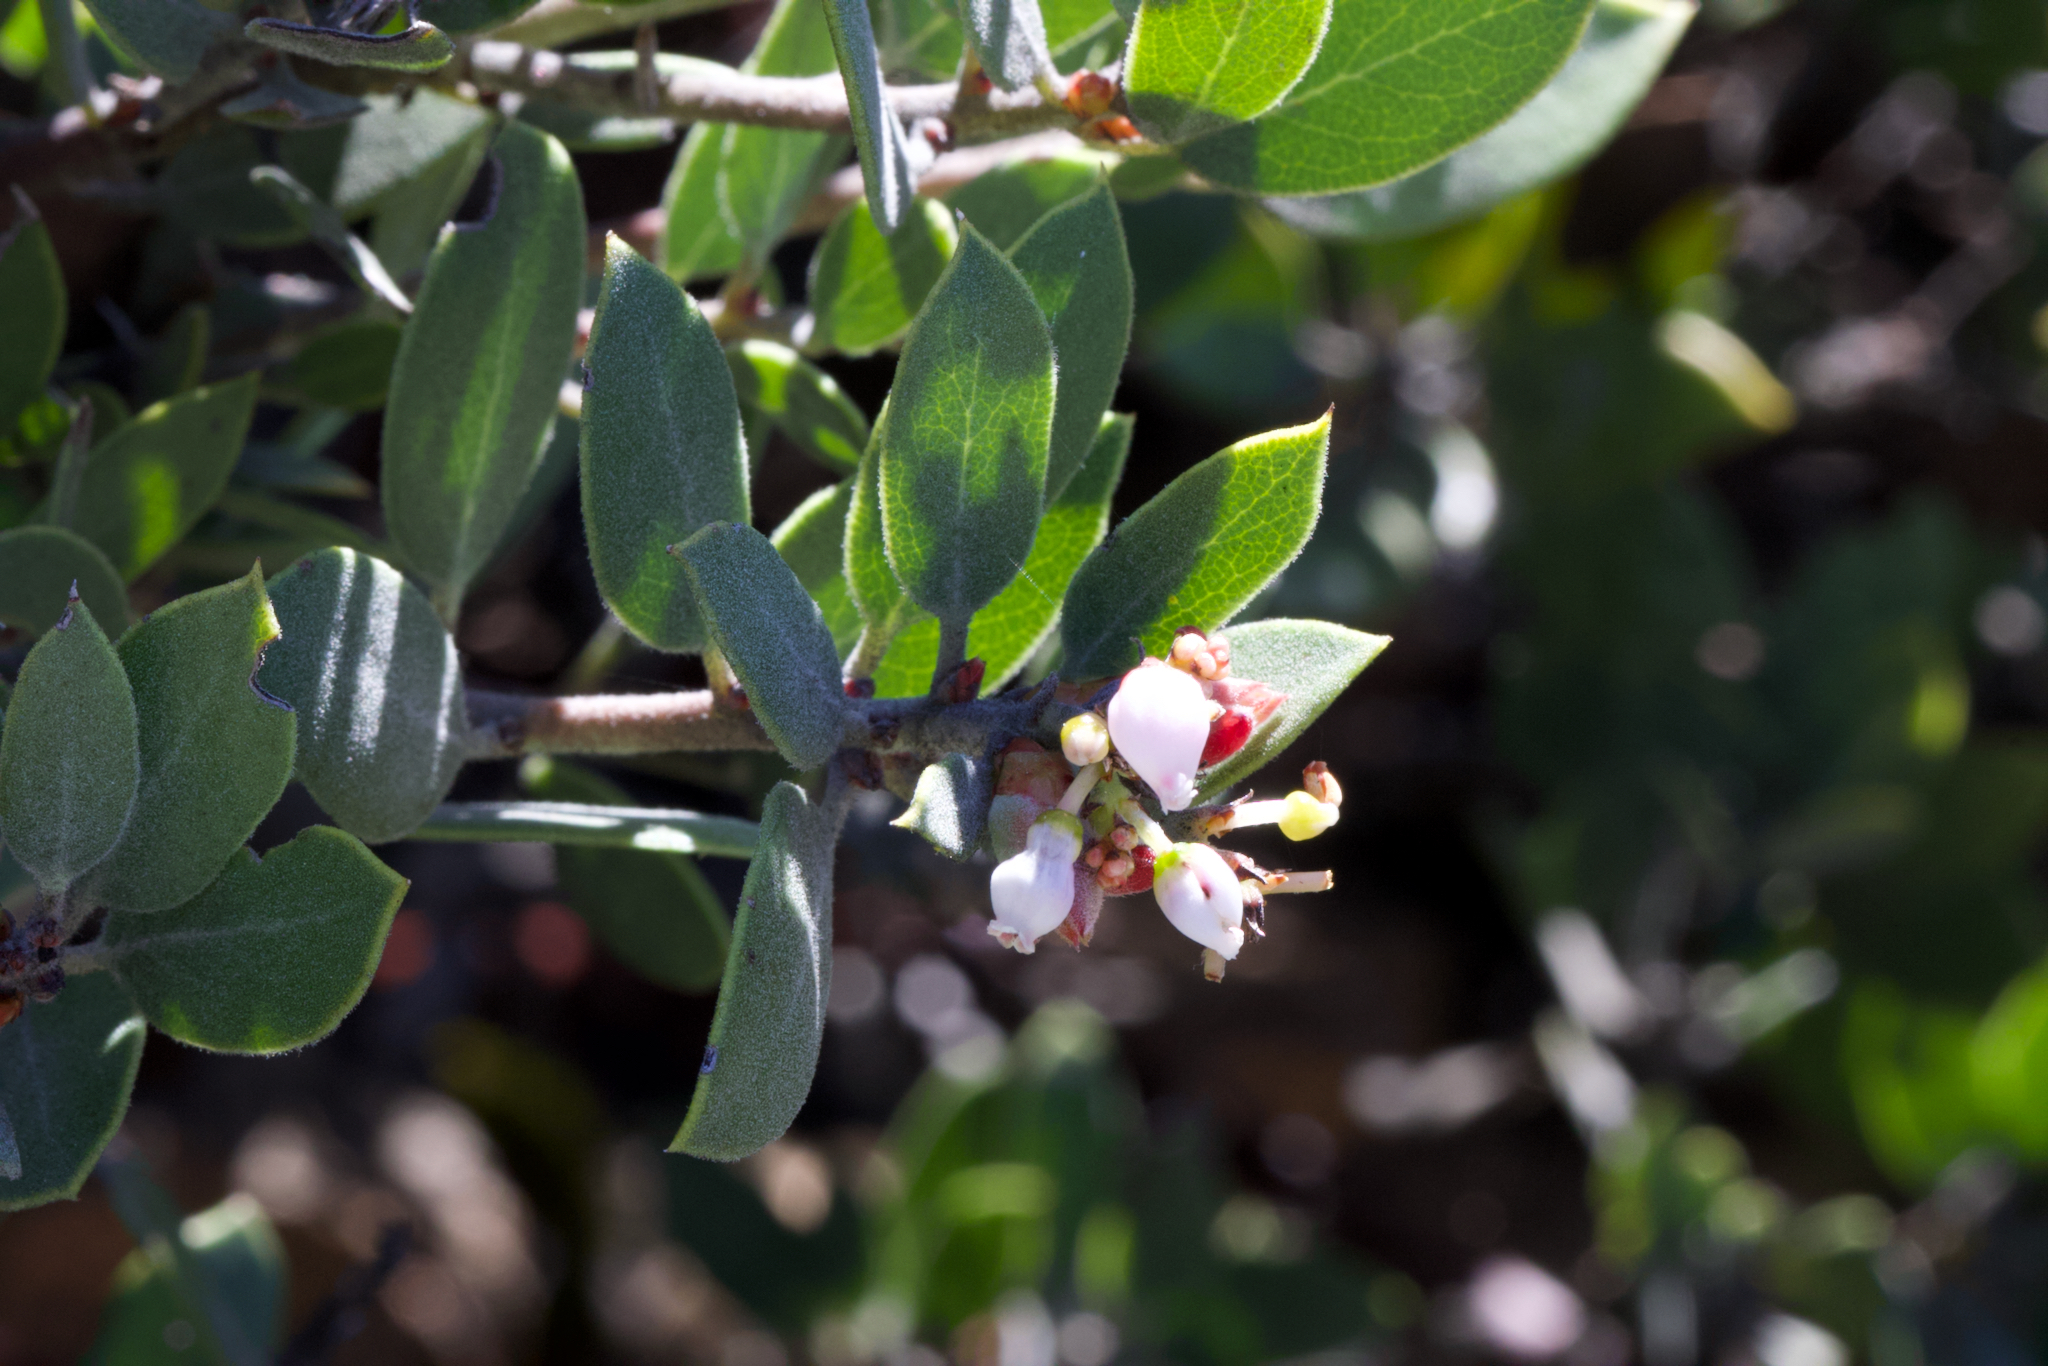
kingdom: Plantae
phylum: Tracheophyta
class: Magnoliopsida
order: Ericales
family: Ericaceae
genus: Arctostaphylos
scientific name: Arctostaphylos montana
